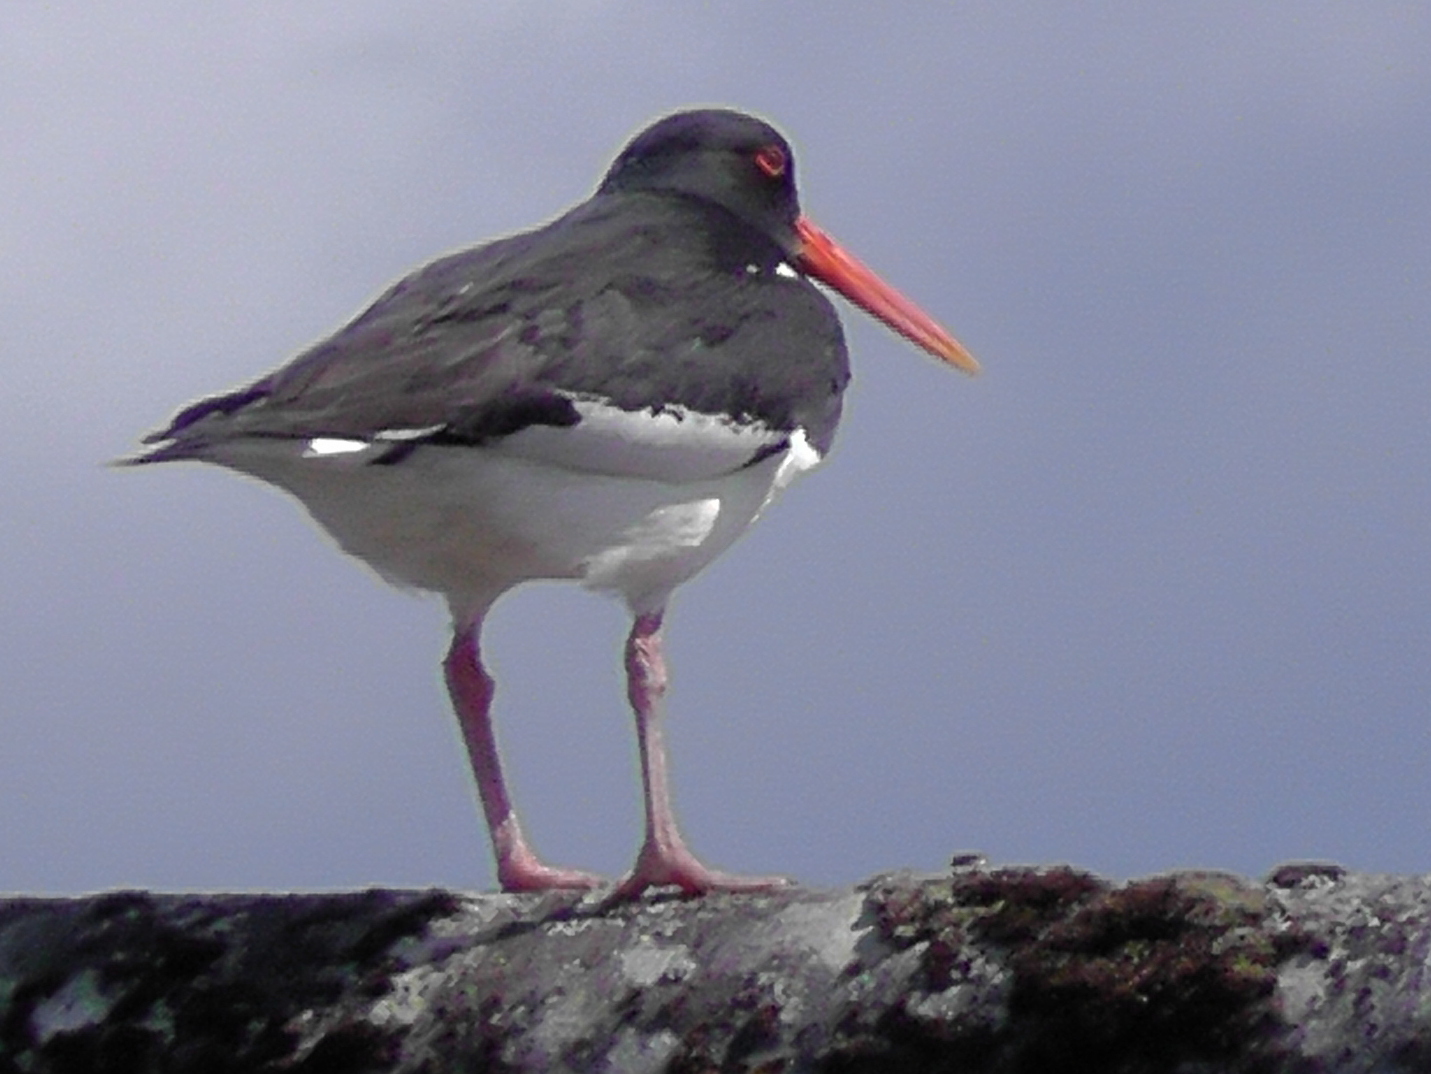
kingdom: Animalia
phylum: Chordata
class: Aves
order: Charadriiformes
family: Haematopodidae
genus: Haematopus
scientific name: Haematopus ostralegus
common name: Eurasian oystercatcher
